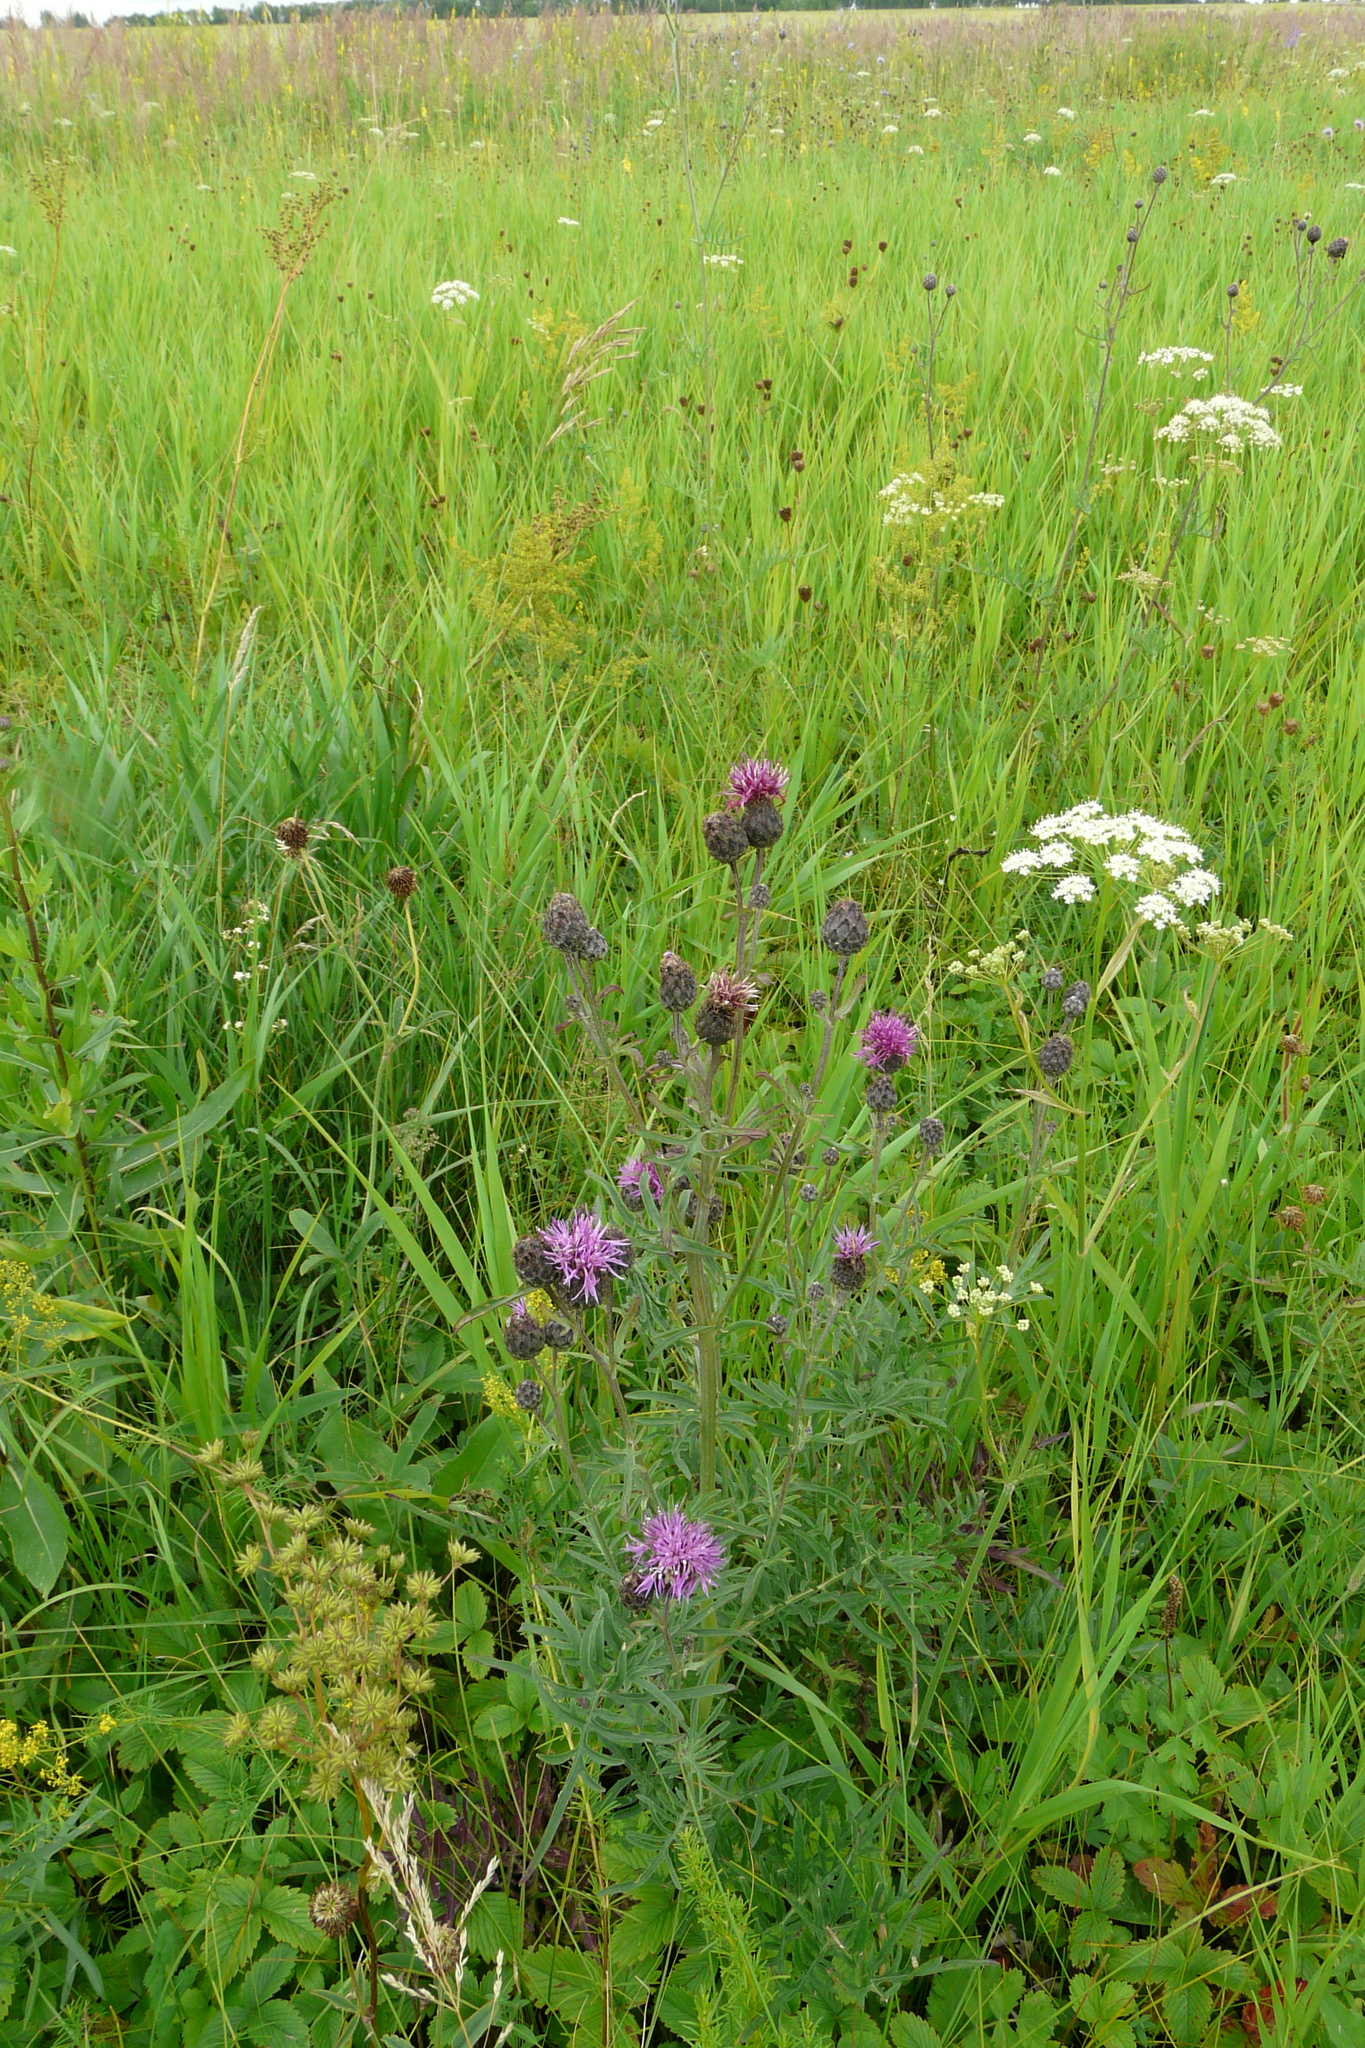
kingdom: Plantae
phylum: Tracheophyta
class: Magnoliopsida
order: Asterales
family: Asteraceae
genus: Centaurea
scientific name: Centaurea scabiosa
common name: Greater knapweed
